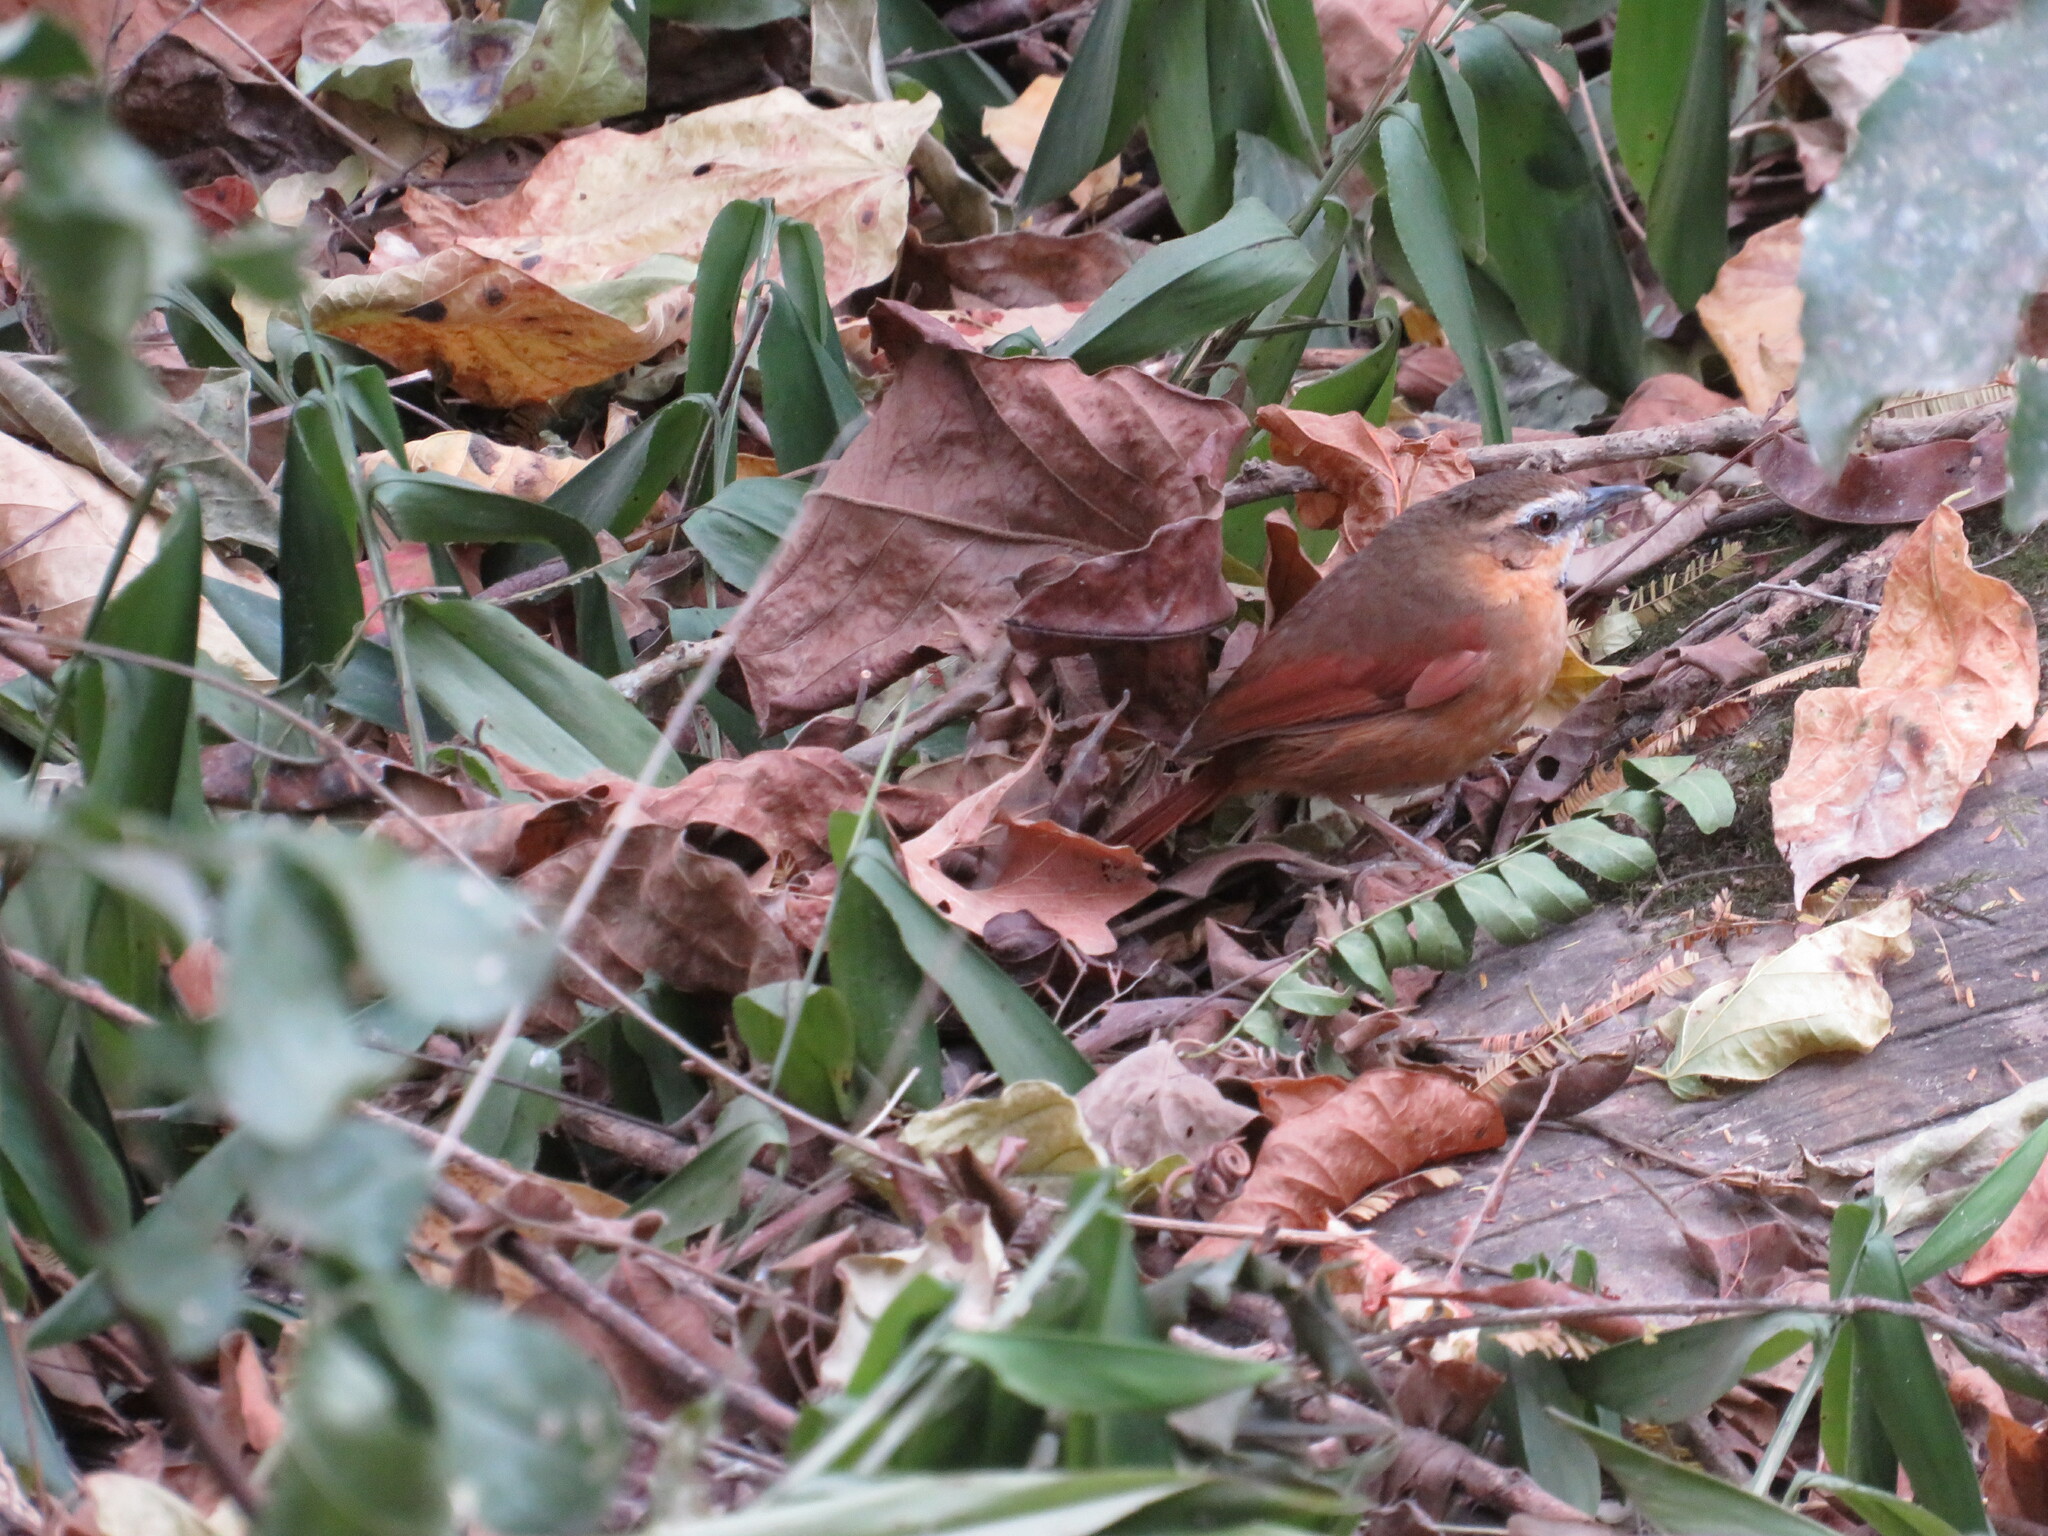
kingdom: Animalia
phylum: Chordata
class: Aves
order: Passeriformes
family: Furnariidae
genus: Synallaxis
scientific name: Synallaxis scutata
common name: Ochre-cheeked spinetail
